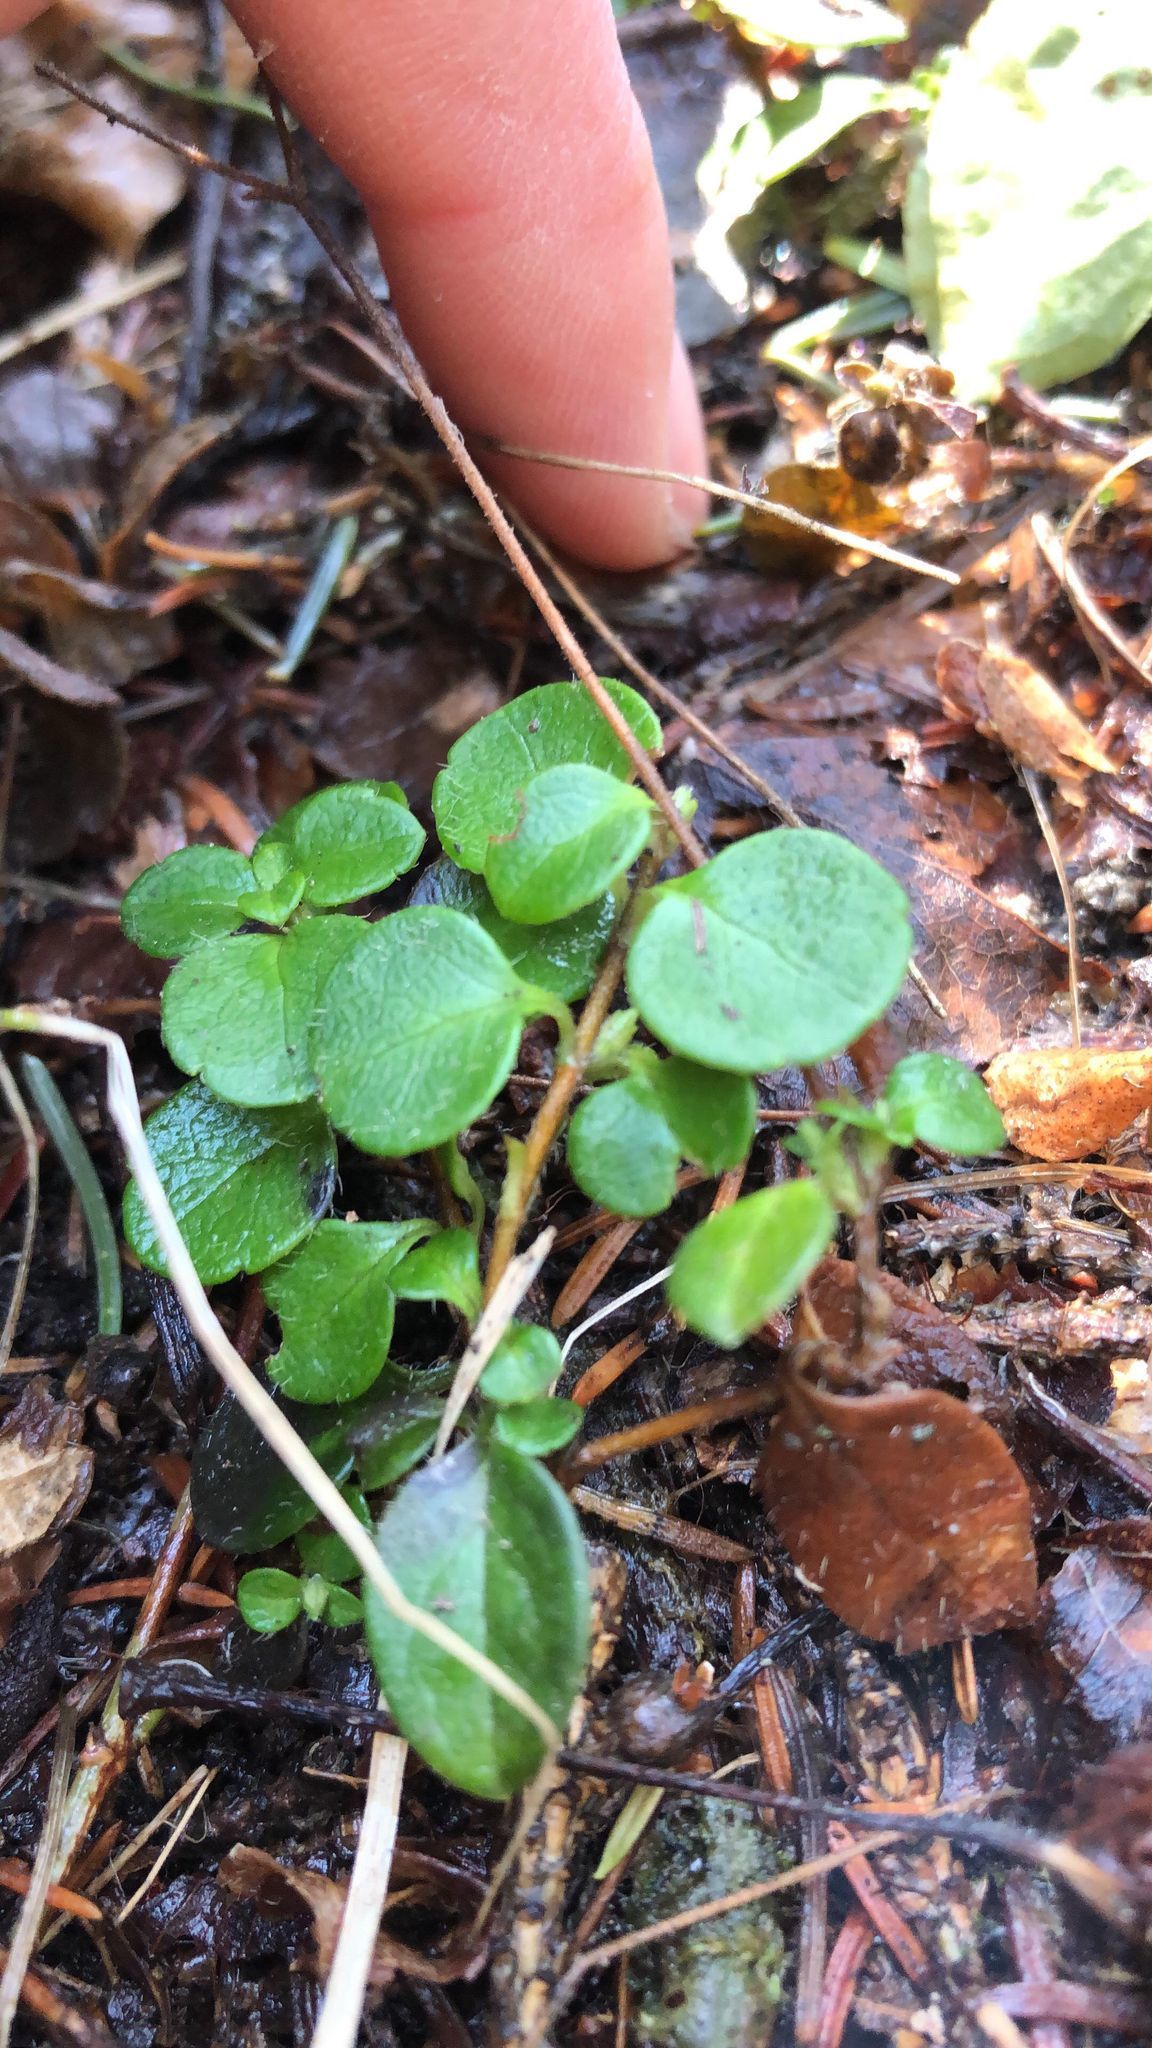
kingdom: Plantae
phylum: Tracheophyta
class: Magnoliopsida
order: Dipsacales
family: Caprifoliaceae
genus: Linnaea
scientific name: Linnaea borealis
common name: Twinflower
